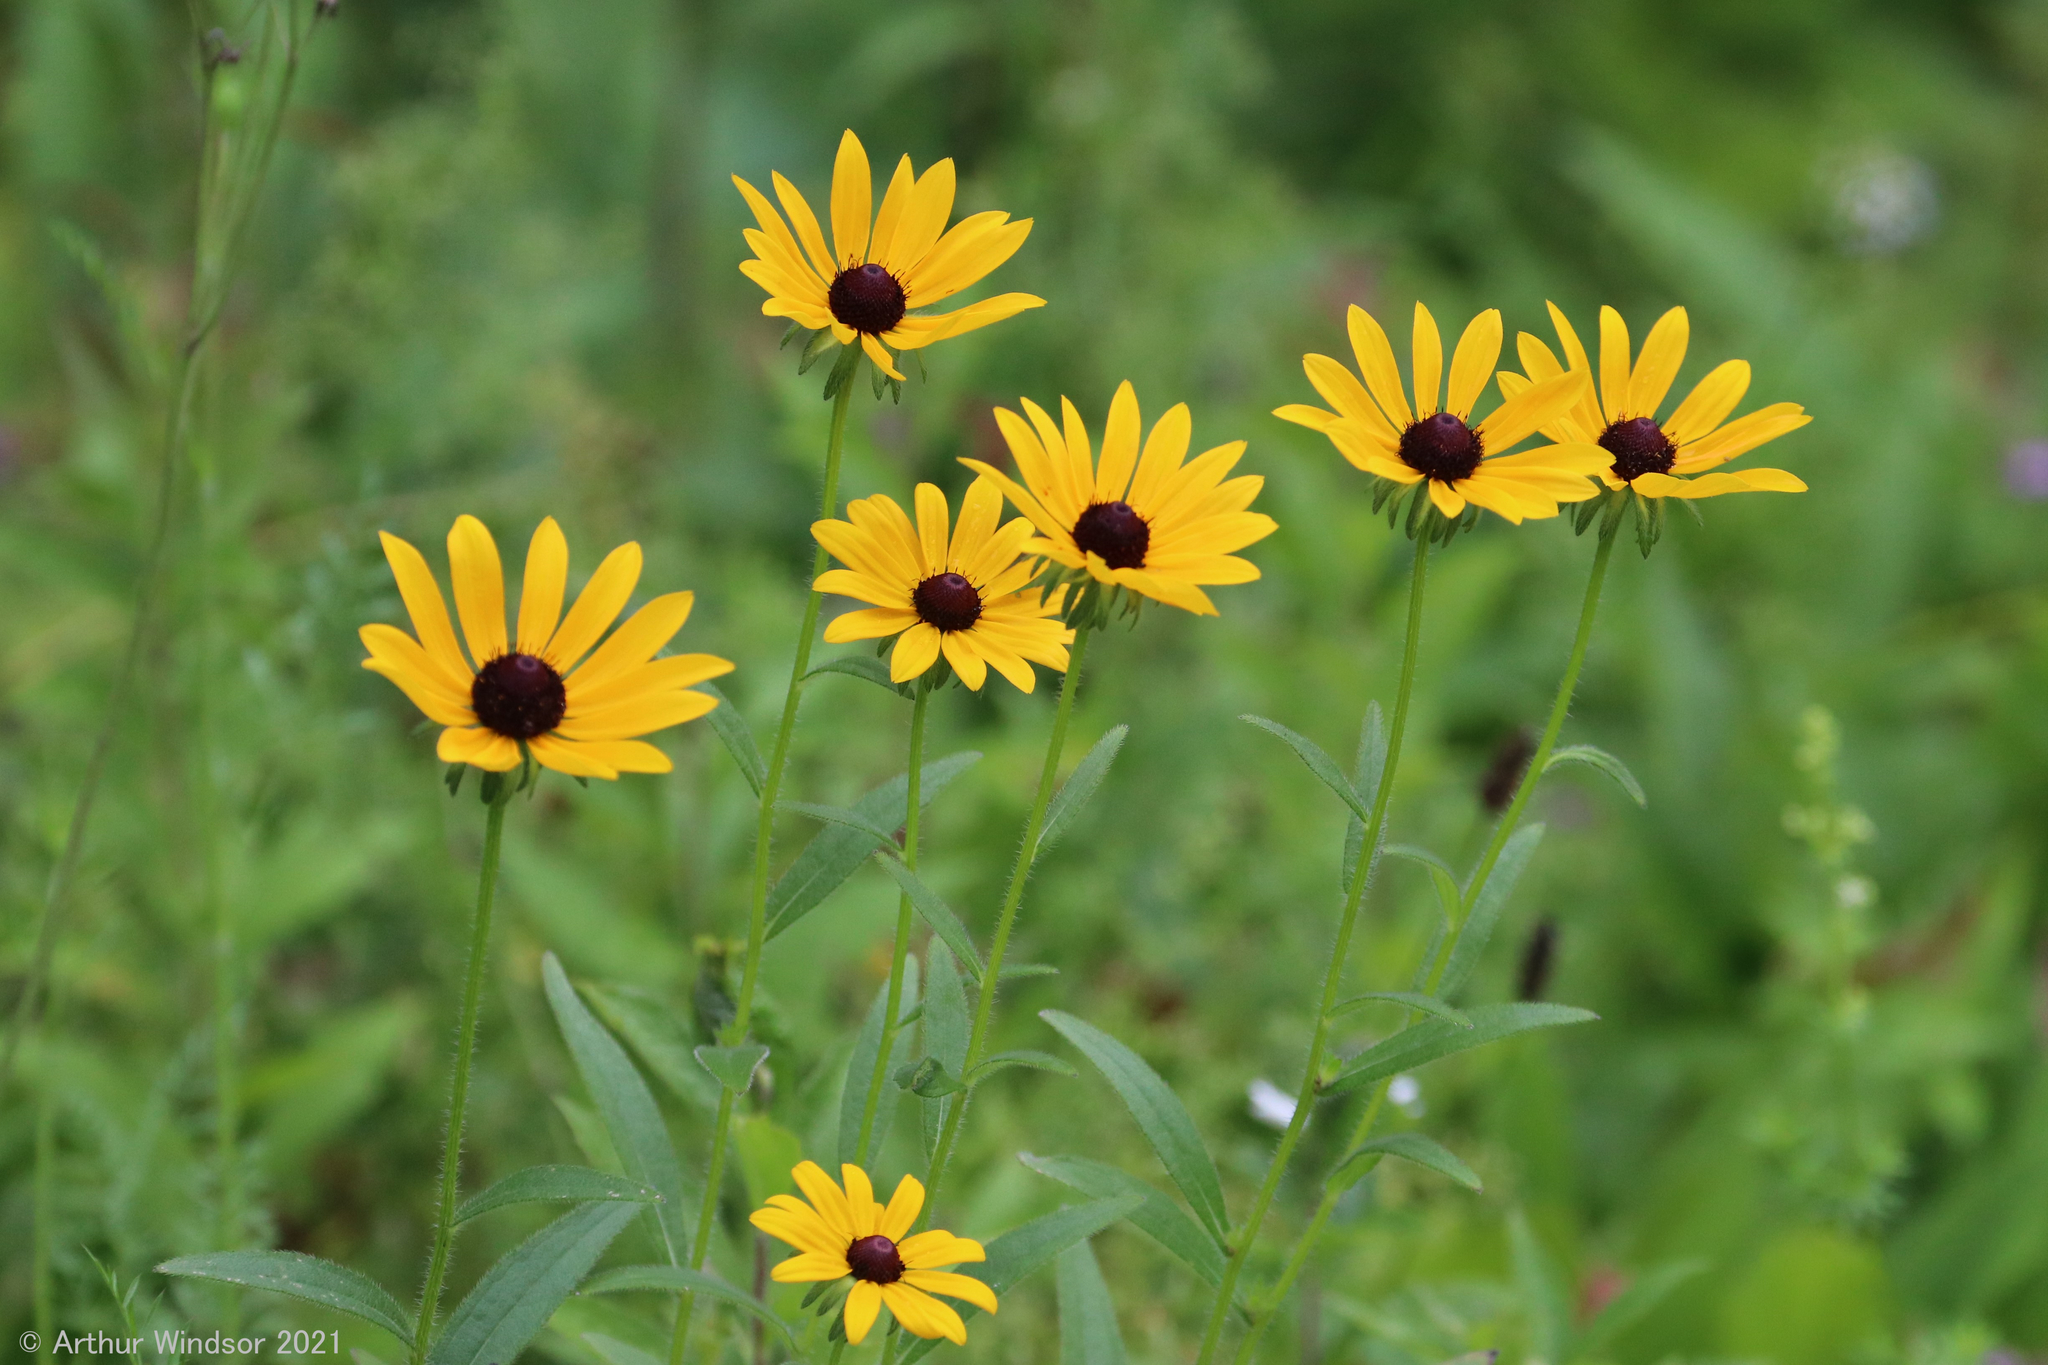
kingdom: Plantae
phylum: Tracheophyta
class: Magnoliopsida
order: Asterales
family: Asteraceae
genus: Rudbeckia
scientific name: Rudbeckia hirta
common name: Black-eyed-susan
